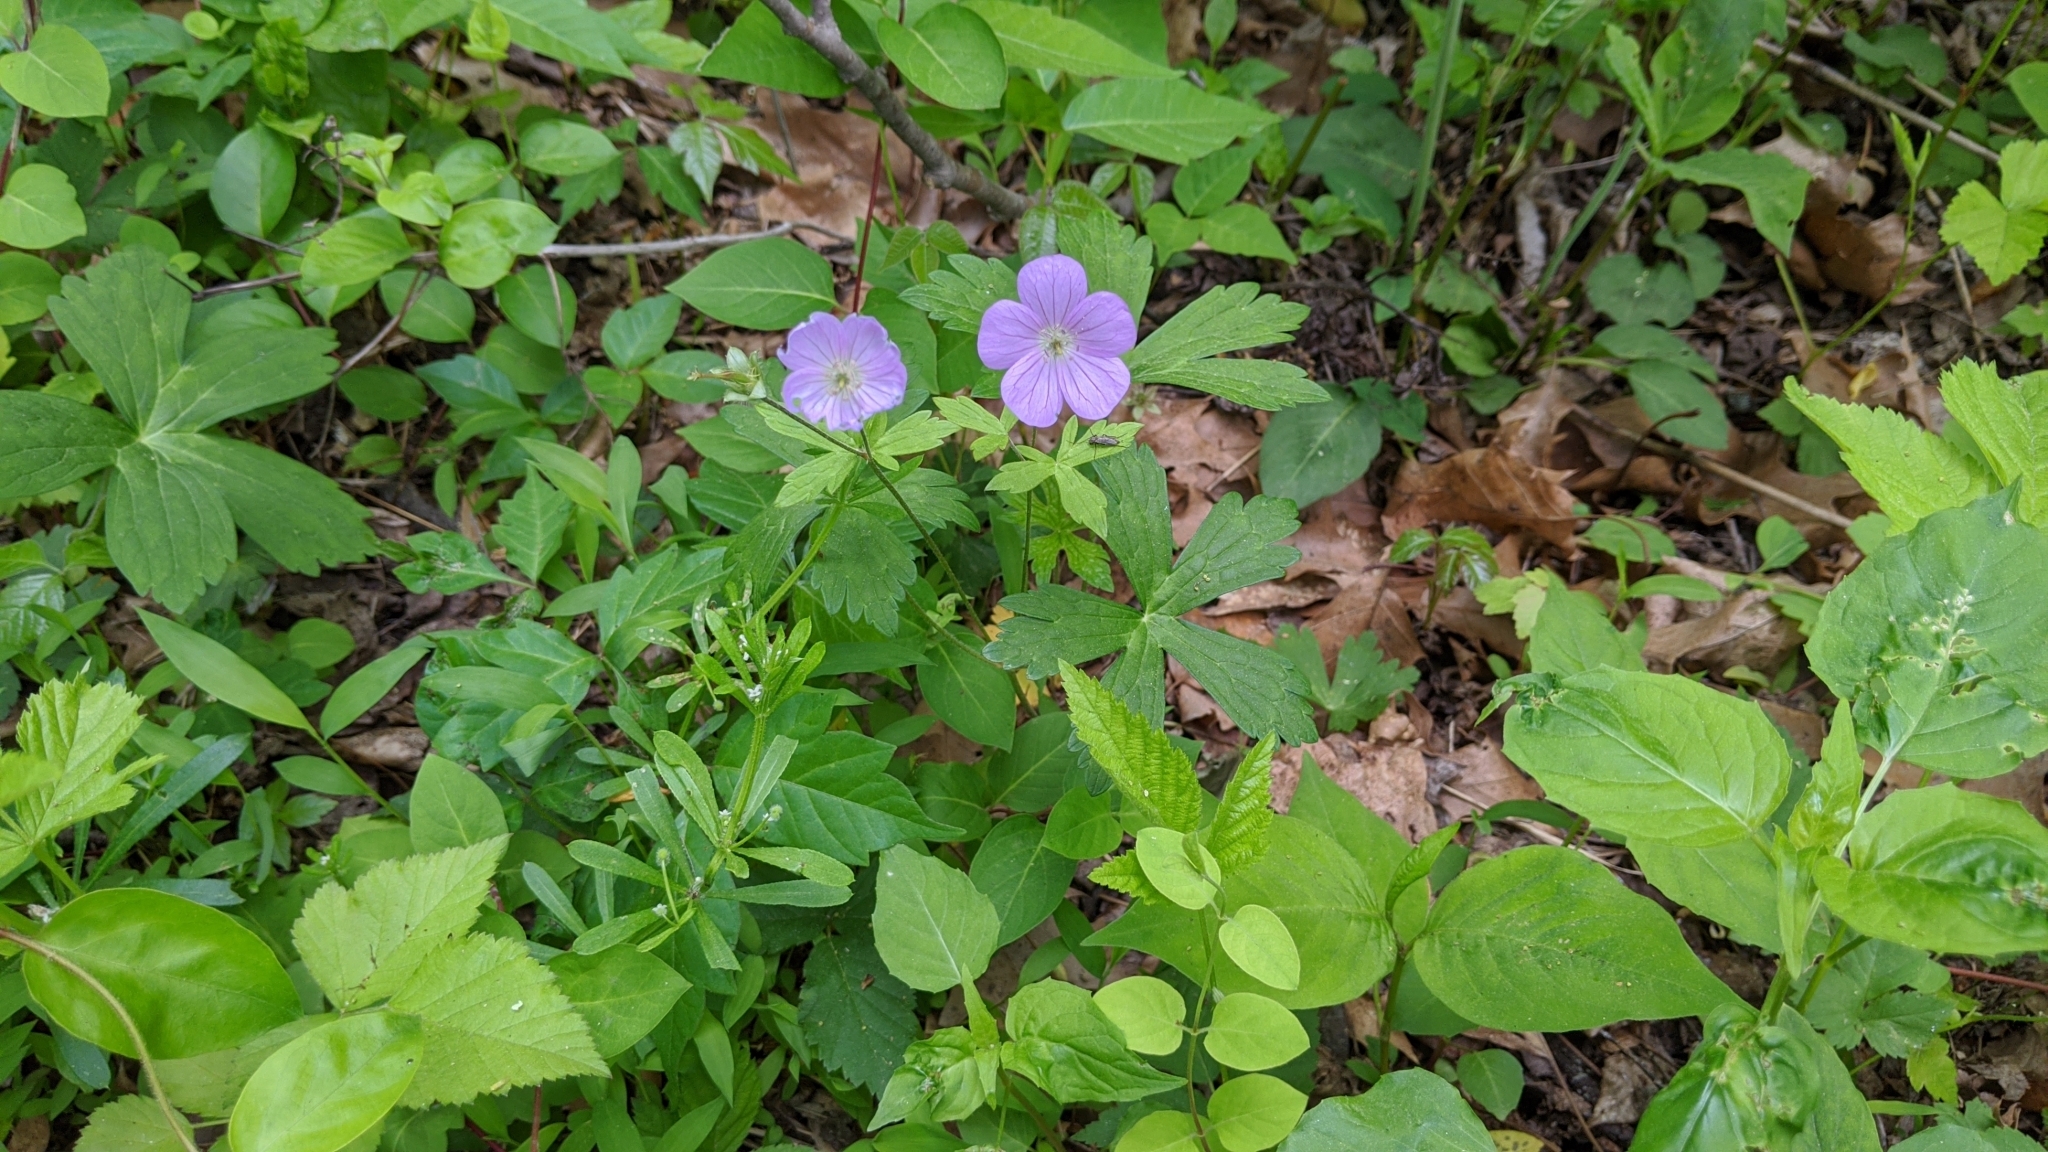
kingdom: Plantae
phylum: Tracheophyta
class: Magnoliopsida
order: Geraniales
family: Geraniaceae
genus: Geranium
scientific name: Geranium maculatum
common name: Spotted geranium
